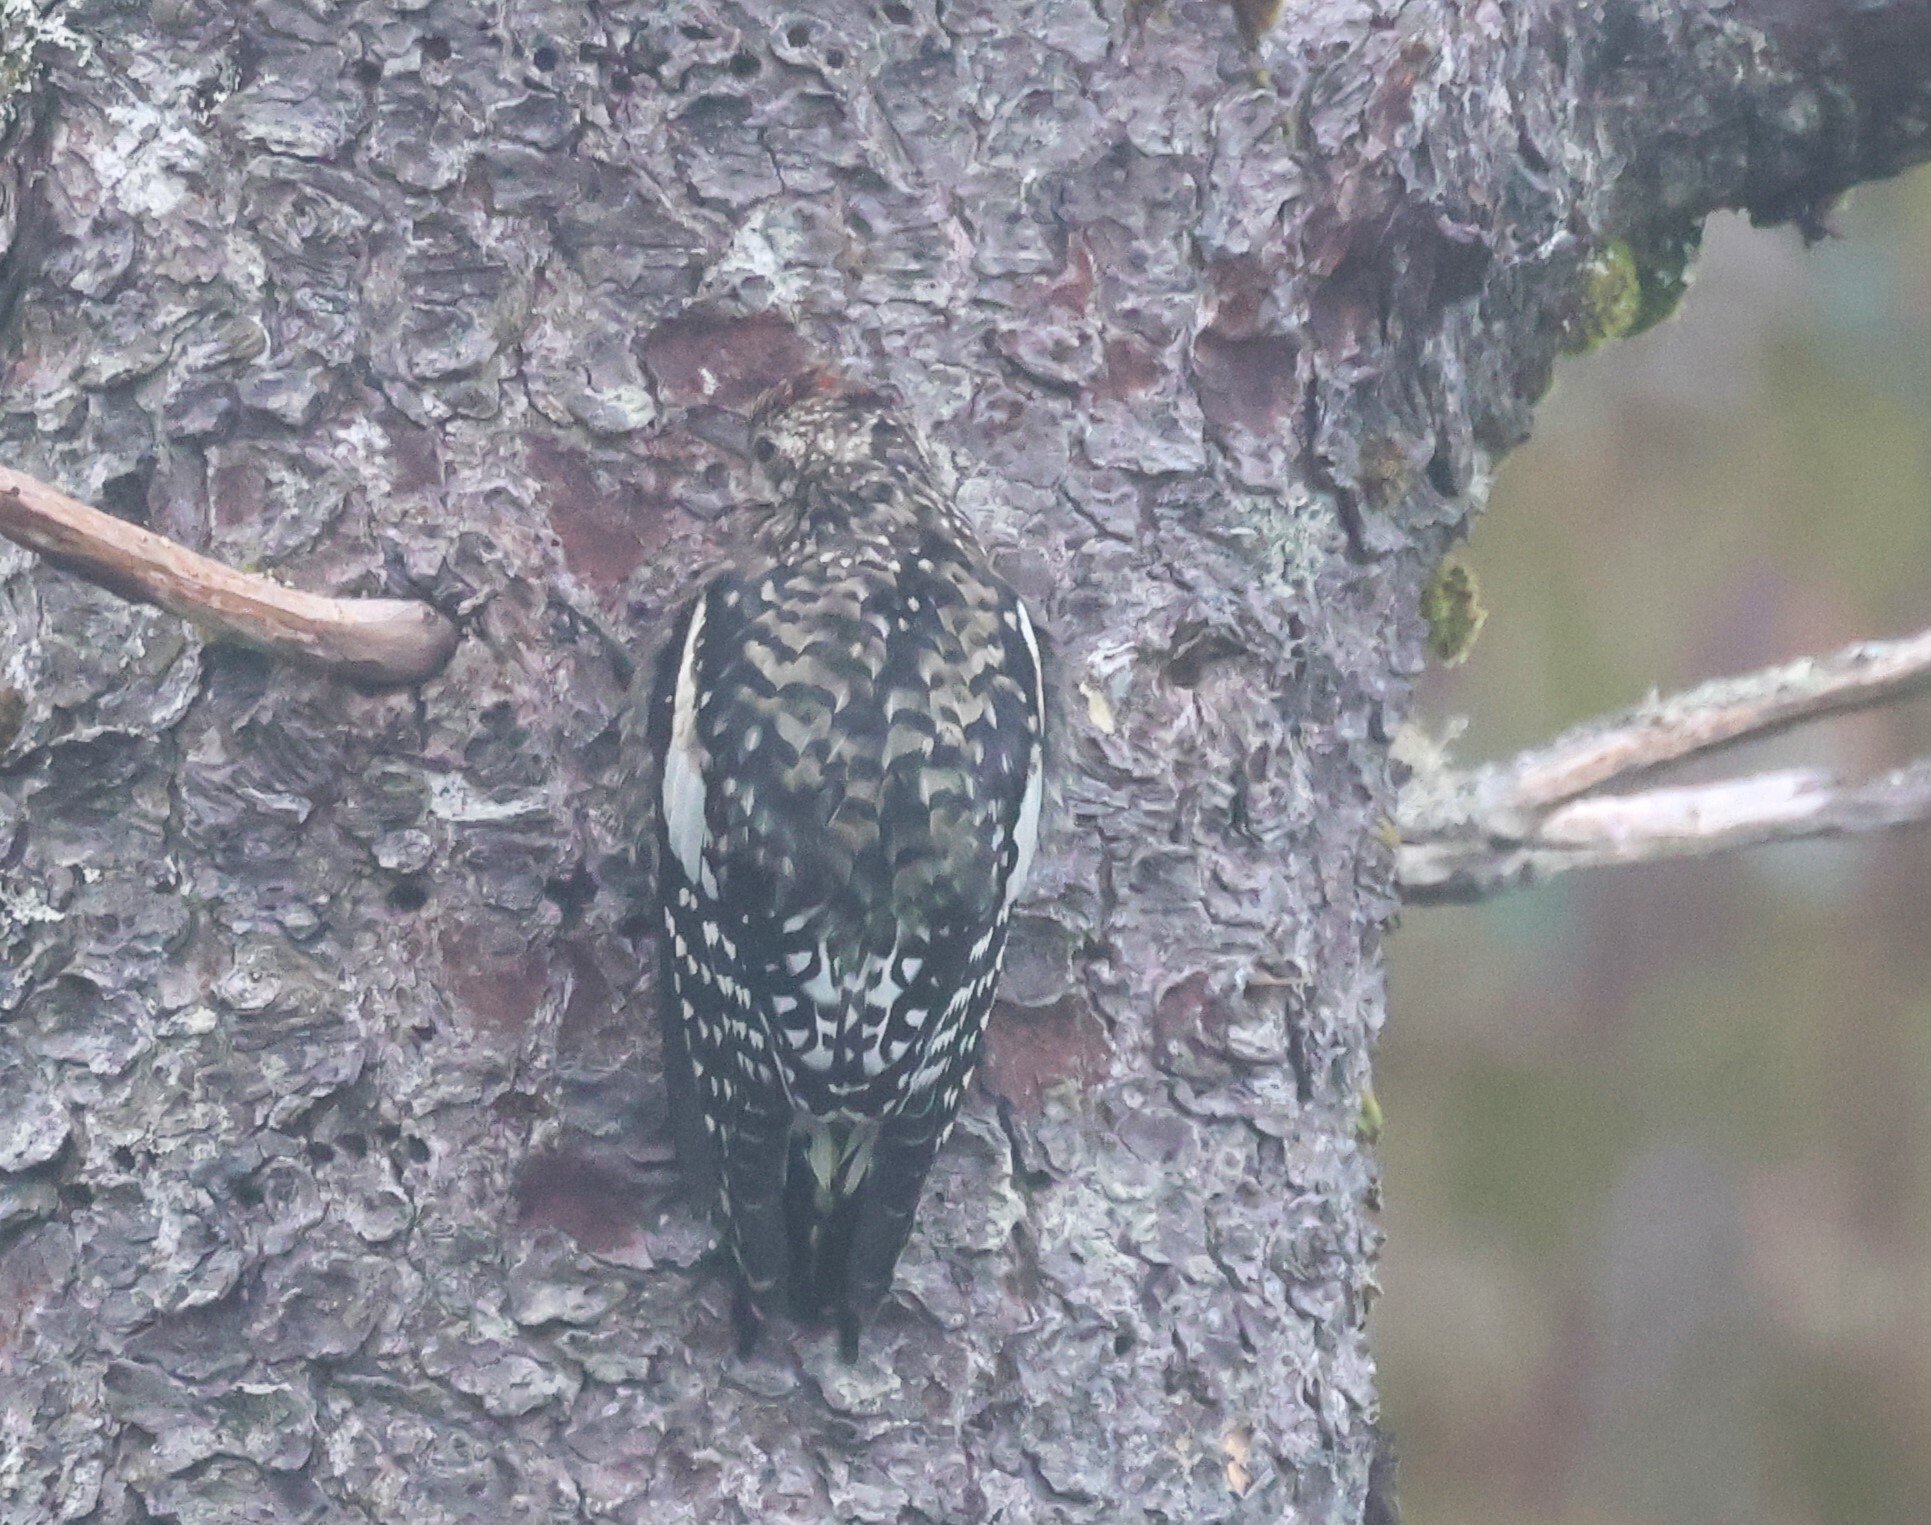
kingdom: Animalia
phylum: Chordata
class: Aves
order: Piciformes
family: Picidae
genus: Sphyrapicus
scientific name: Sphyrapicus varius
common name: Yellow-bellied sapsucker
